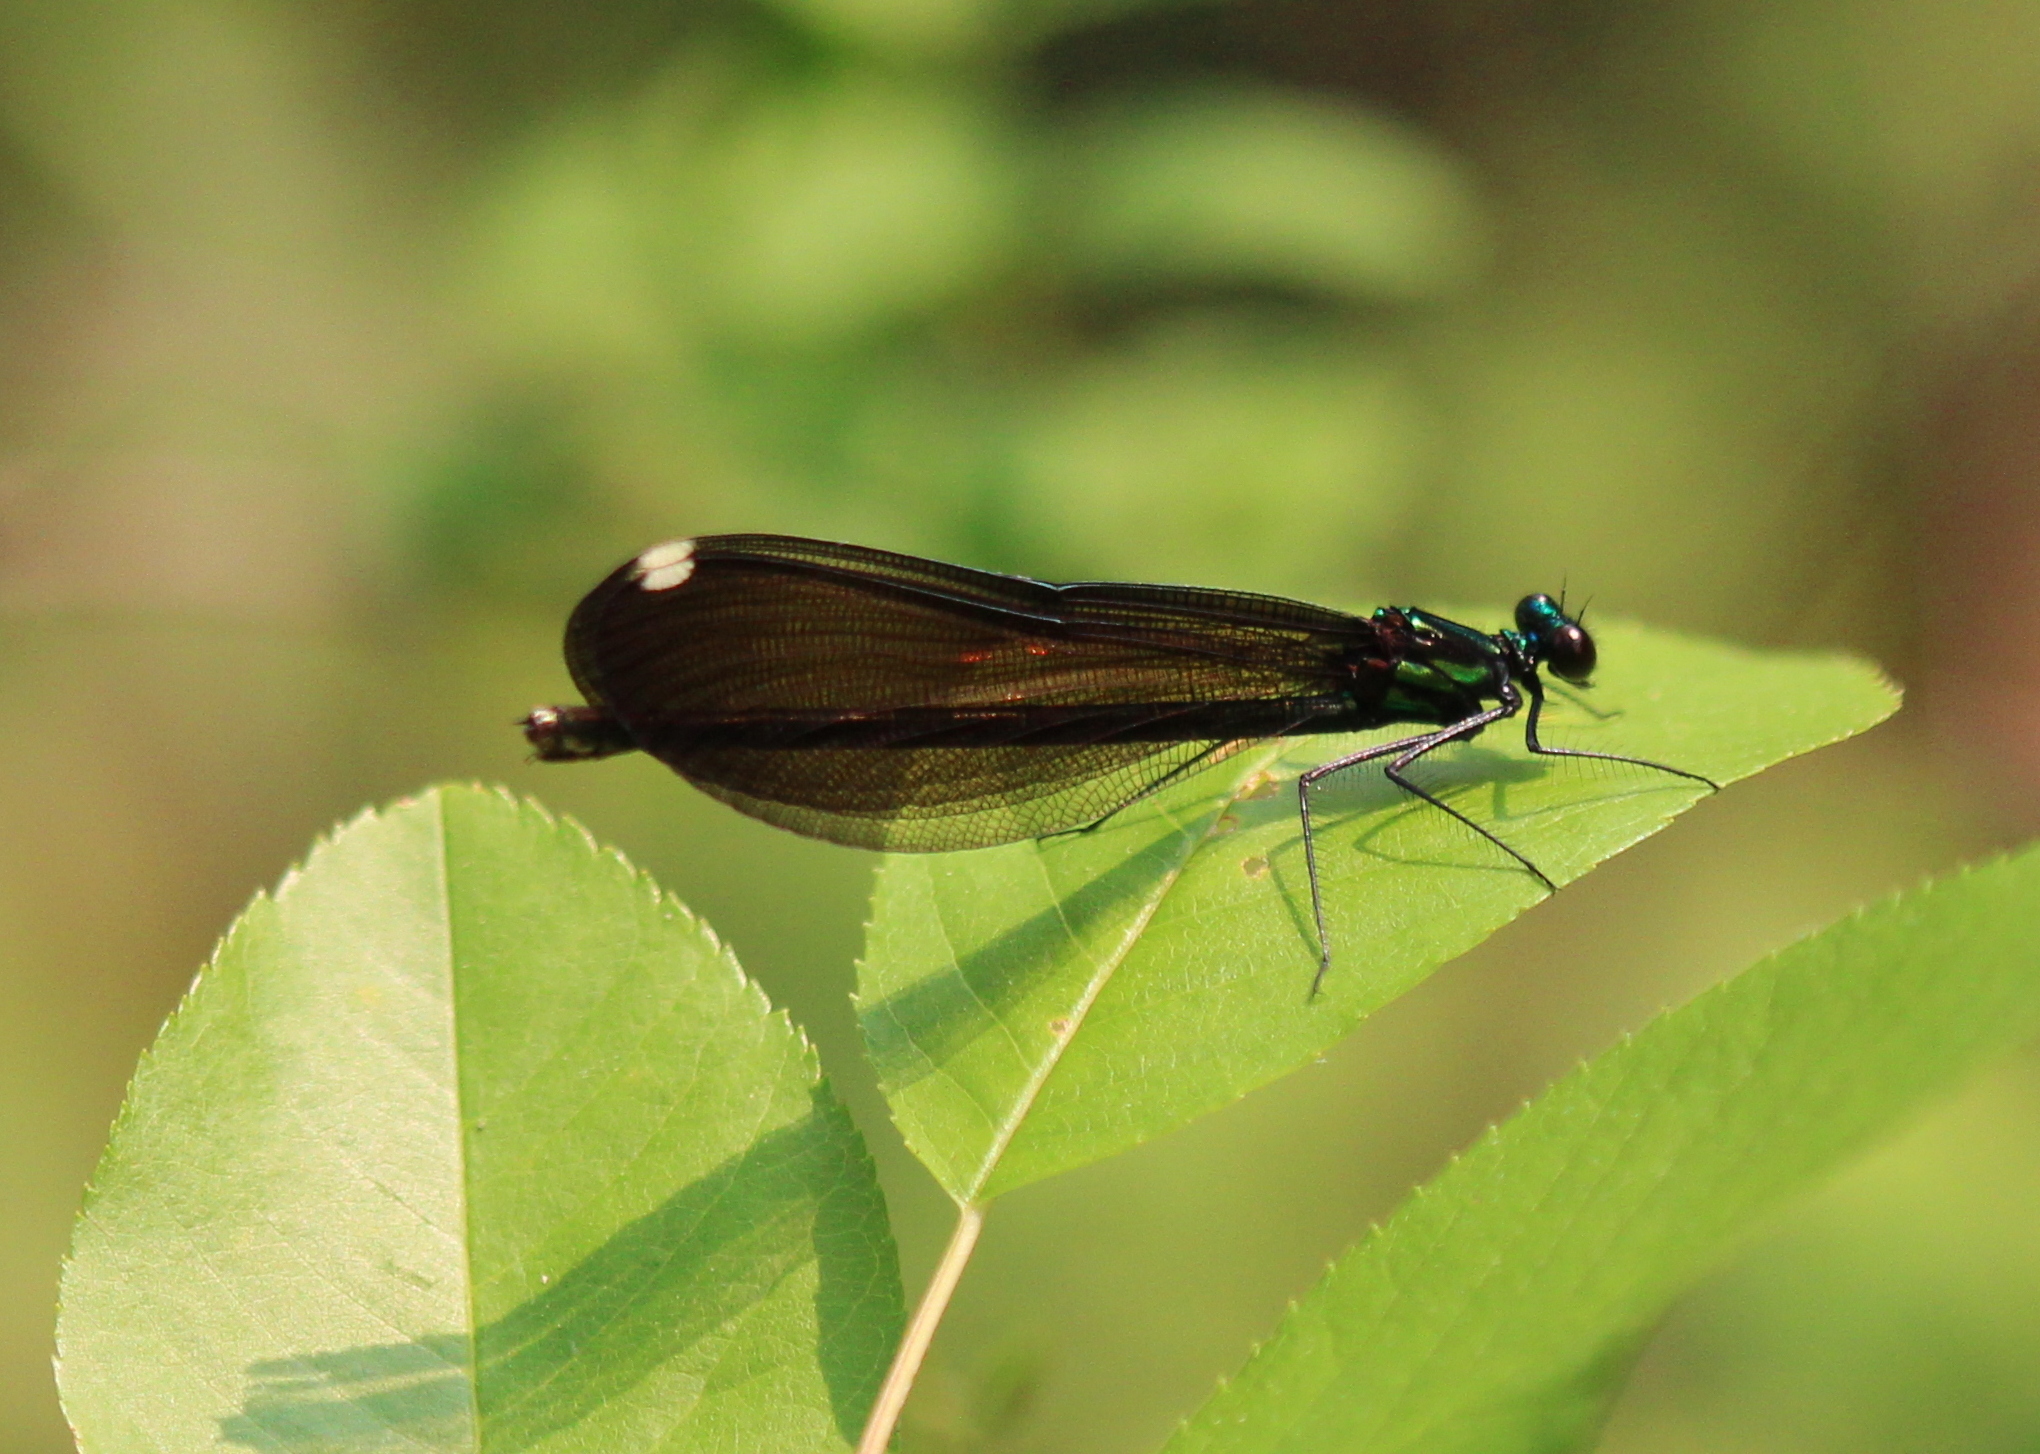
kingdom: Animalia
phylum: Arthropoda
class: Insecta
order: Odonata
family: Calopterygidae
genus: Calopteryx
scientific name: Calopteryx maculata
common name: Ebony jewelwing
